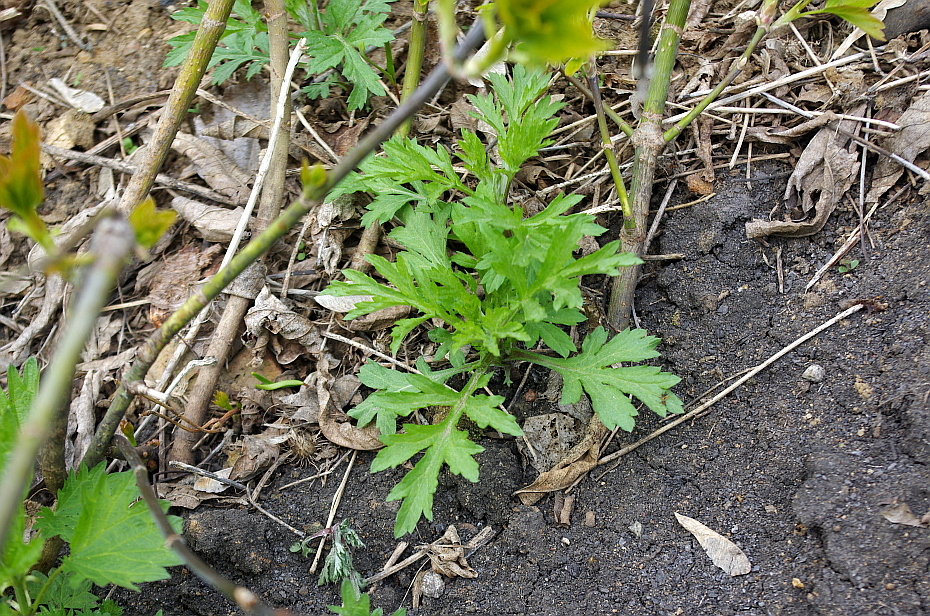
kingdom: Plantae
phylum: Tracheophyta
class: Magnoliopsida
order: Asterales
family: Asteraceae
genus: Artemisia
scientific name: Artemisia vulgaris
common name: Mugwort
